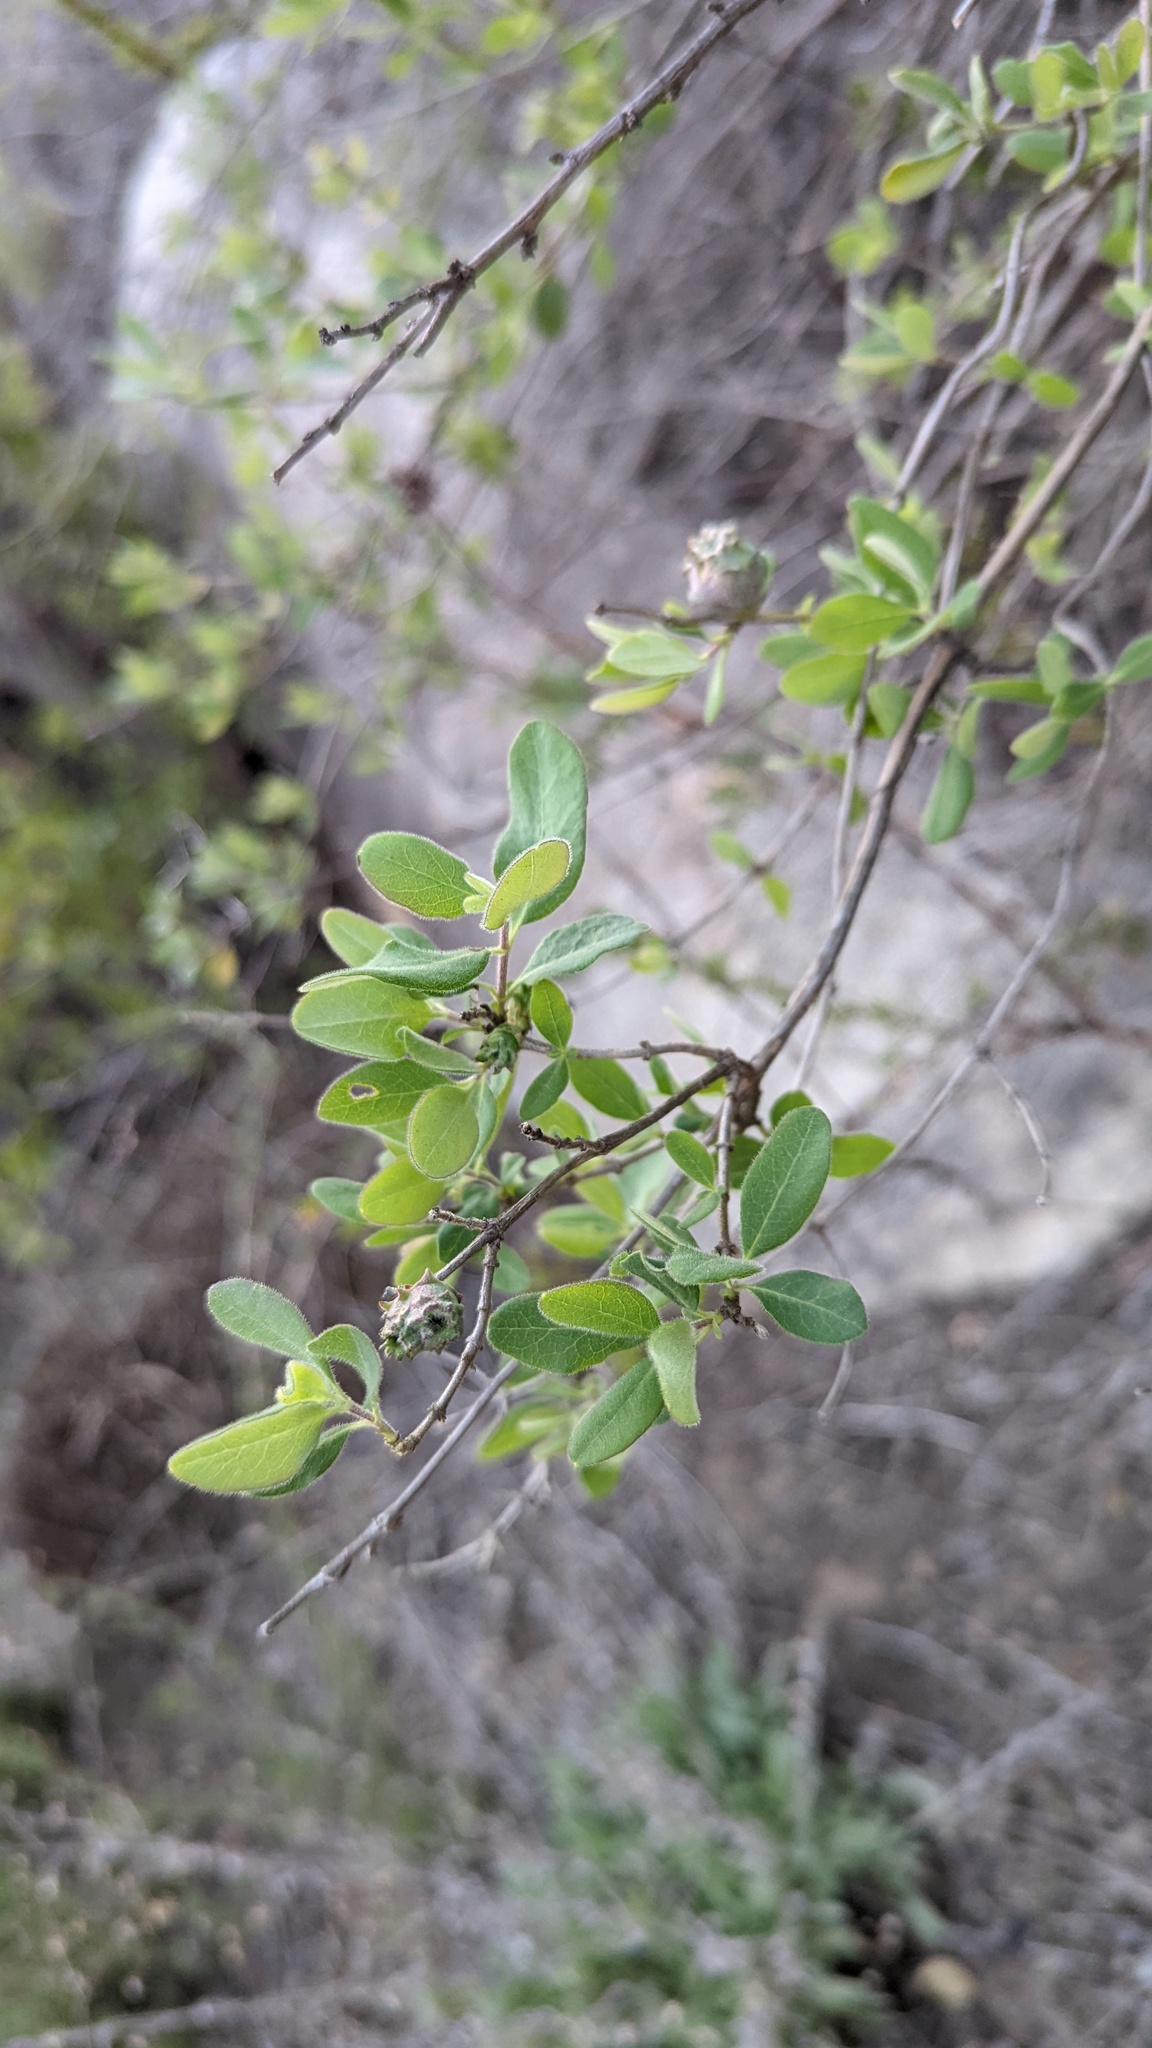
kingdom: Animalia
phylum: Arthropoda
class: Insecta
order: Diptera
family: Cecidomyiidae
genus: Lonicerae
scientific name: Lonicerae
